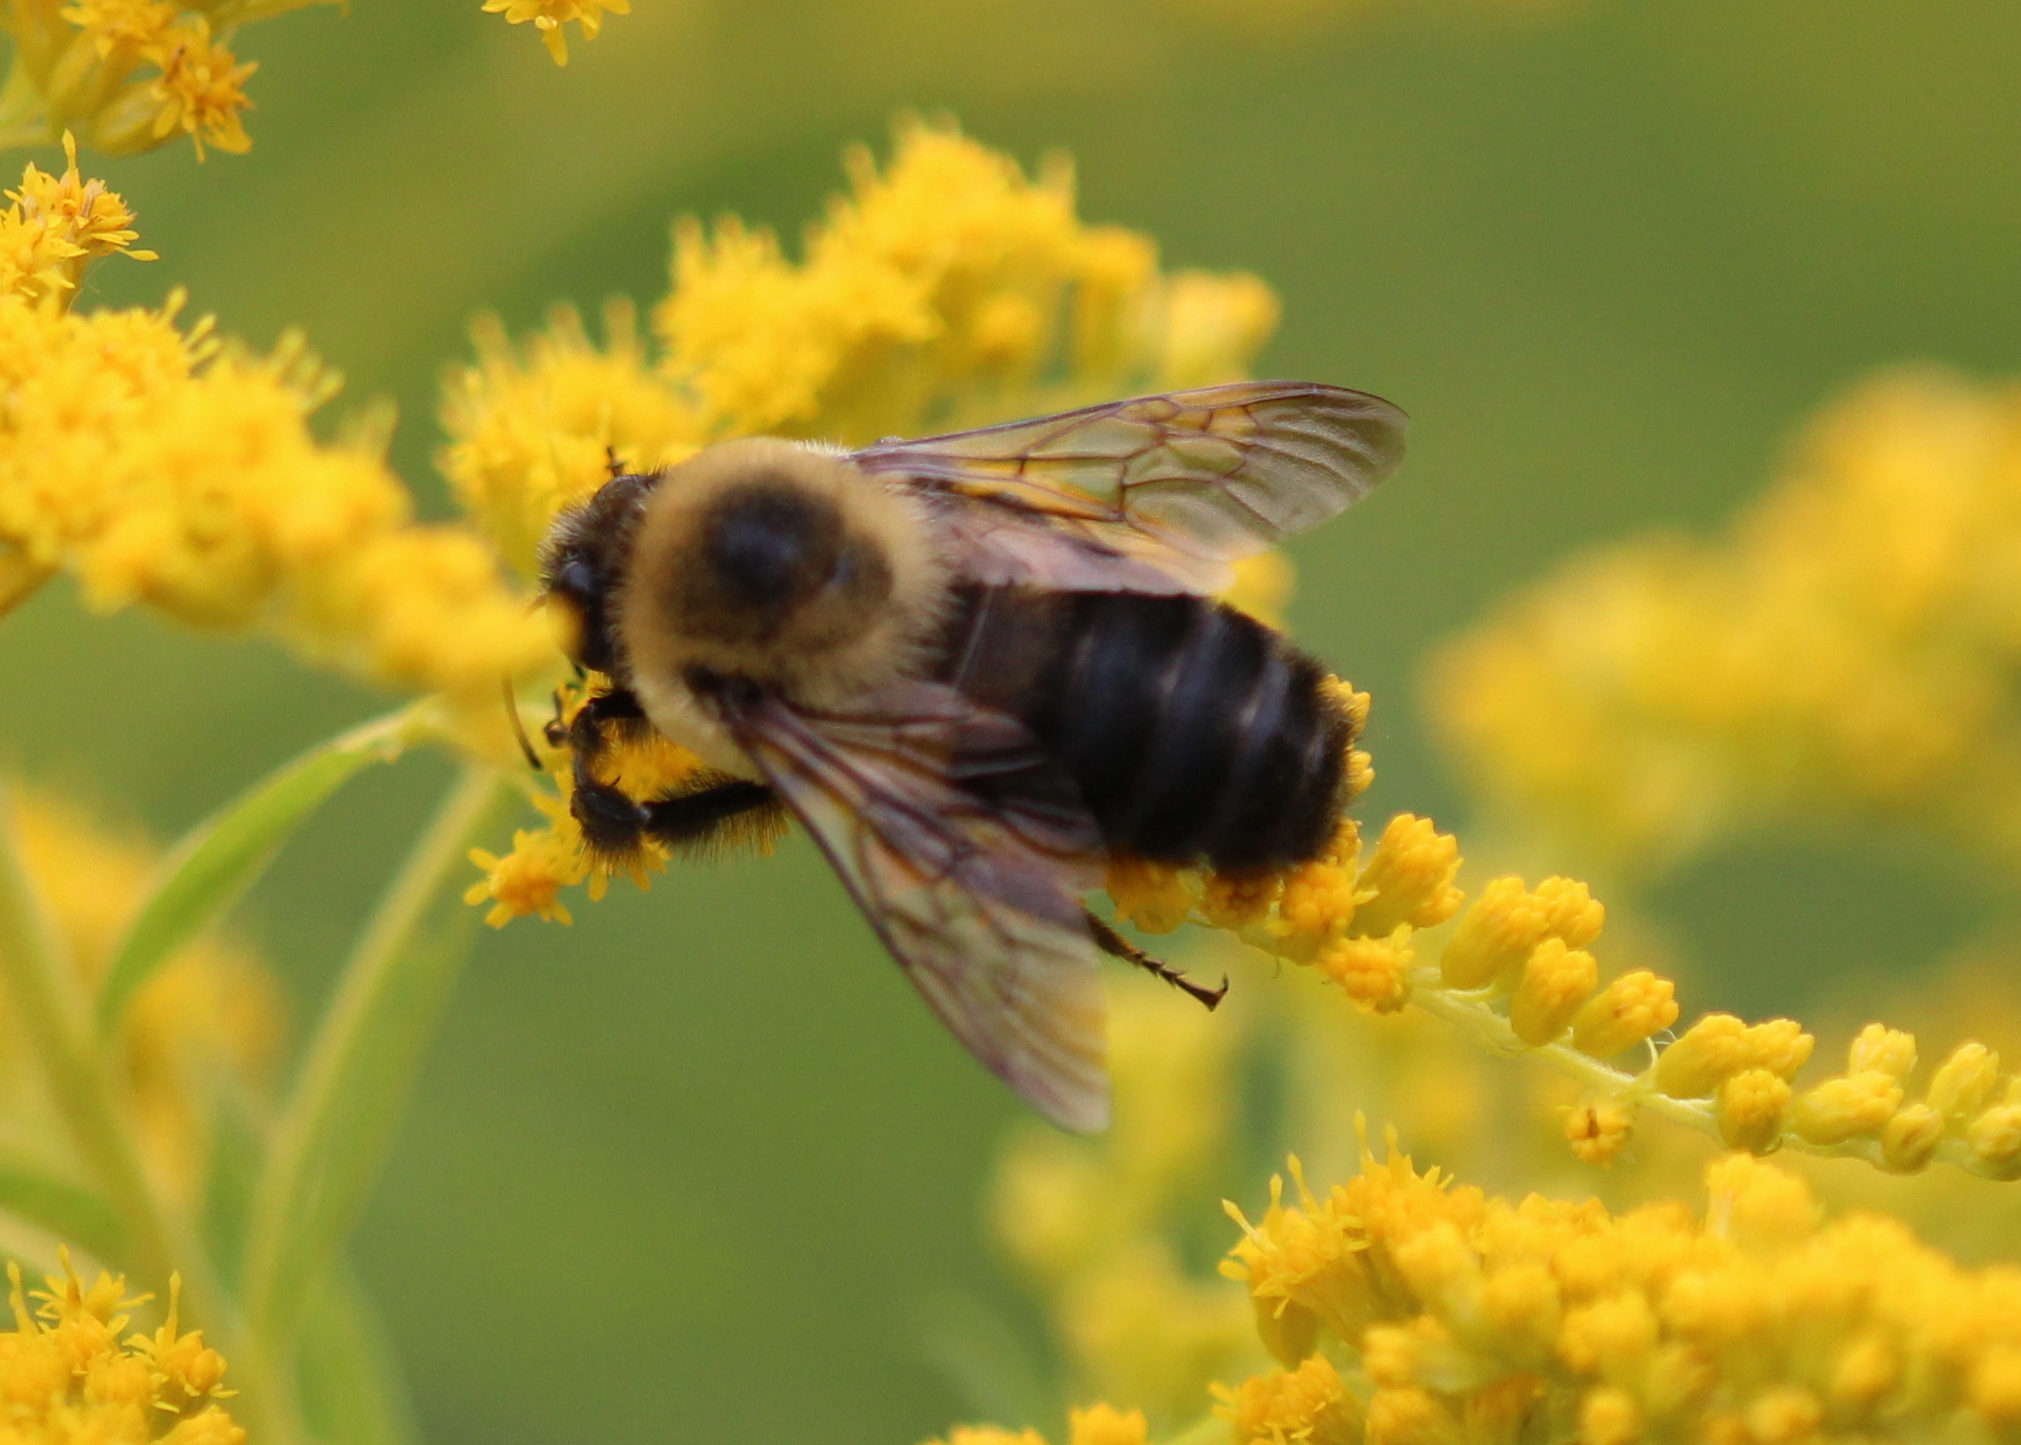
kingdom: Animalia
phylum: Arthropoda
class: Insecta
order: Hymenoptera
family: Apidae
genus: Bombus
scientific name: Bombus griseocollis
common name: Brown-belted bumble bee
